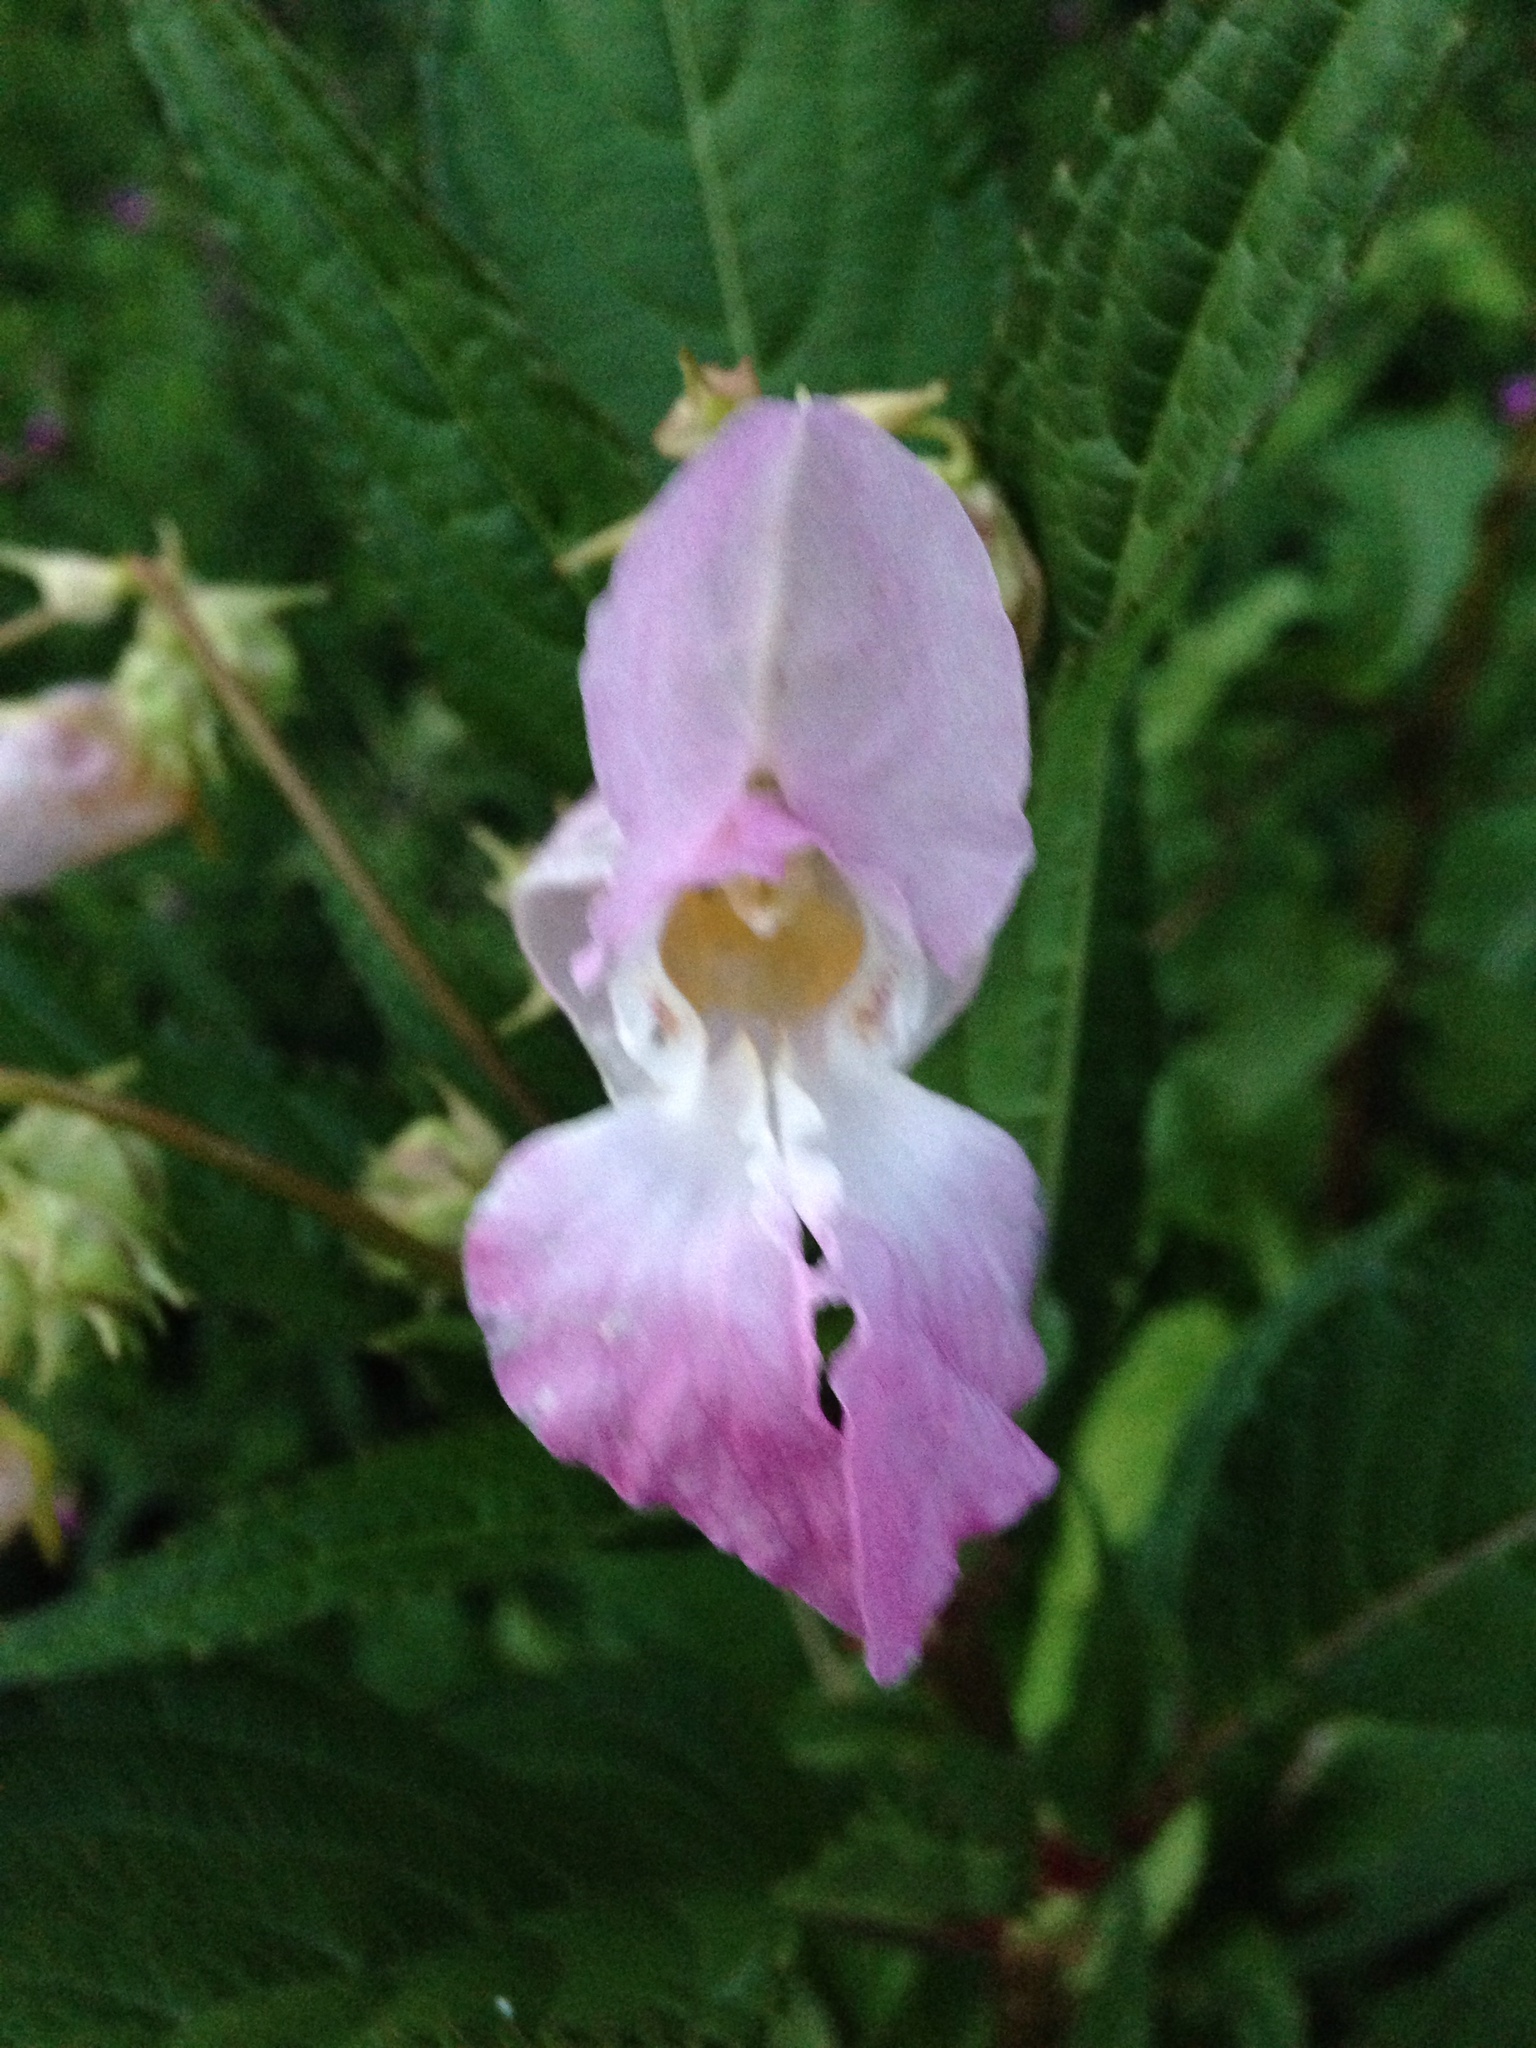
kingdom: Plantae
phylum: Tracheophyta
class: Magnoliopsida
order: Ericales
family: Balsaminaceae
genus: Impatiens
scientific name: Impatiens glandulifera
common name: Himalayan balsam
